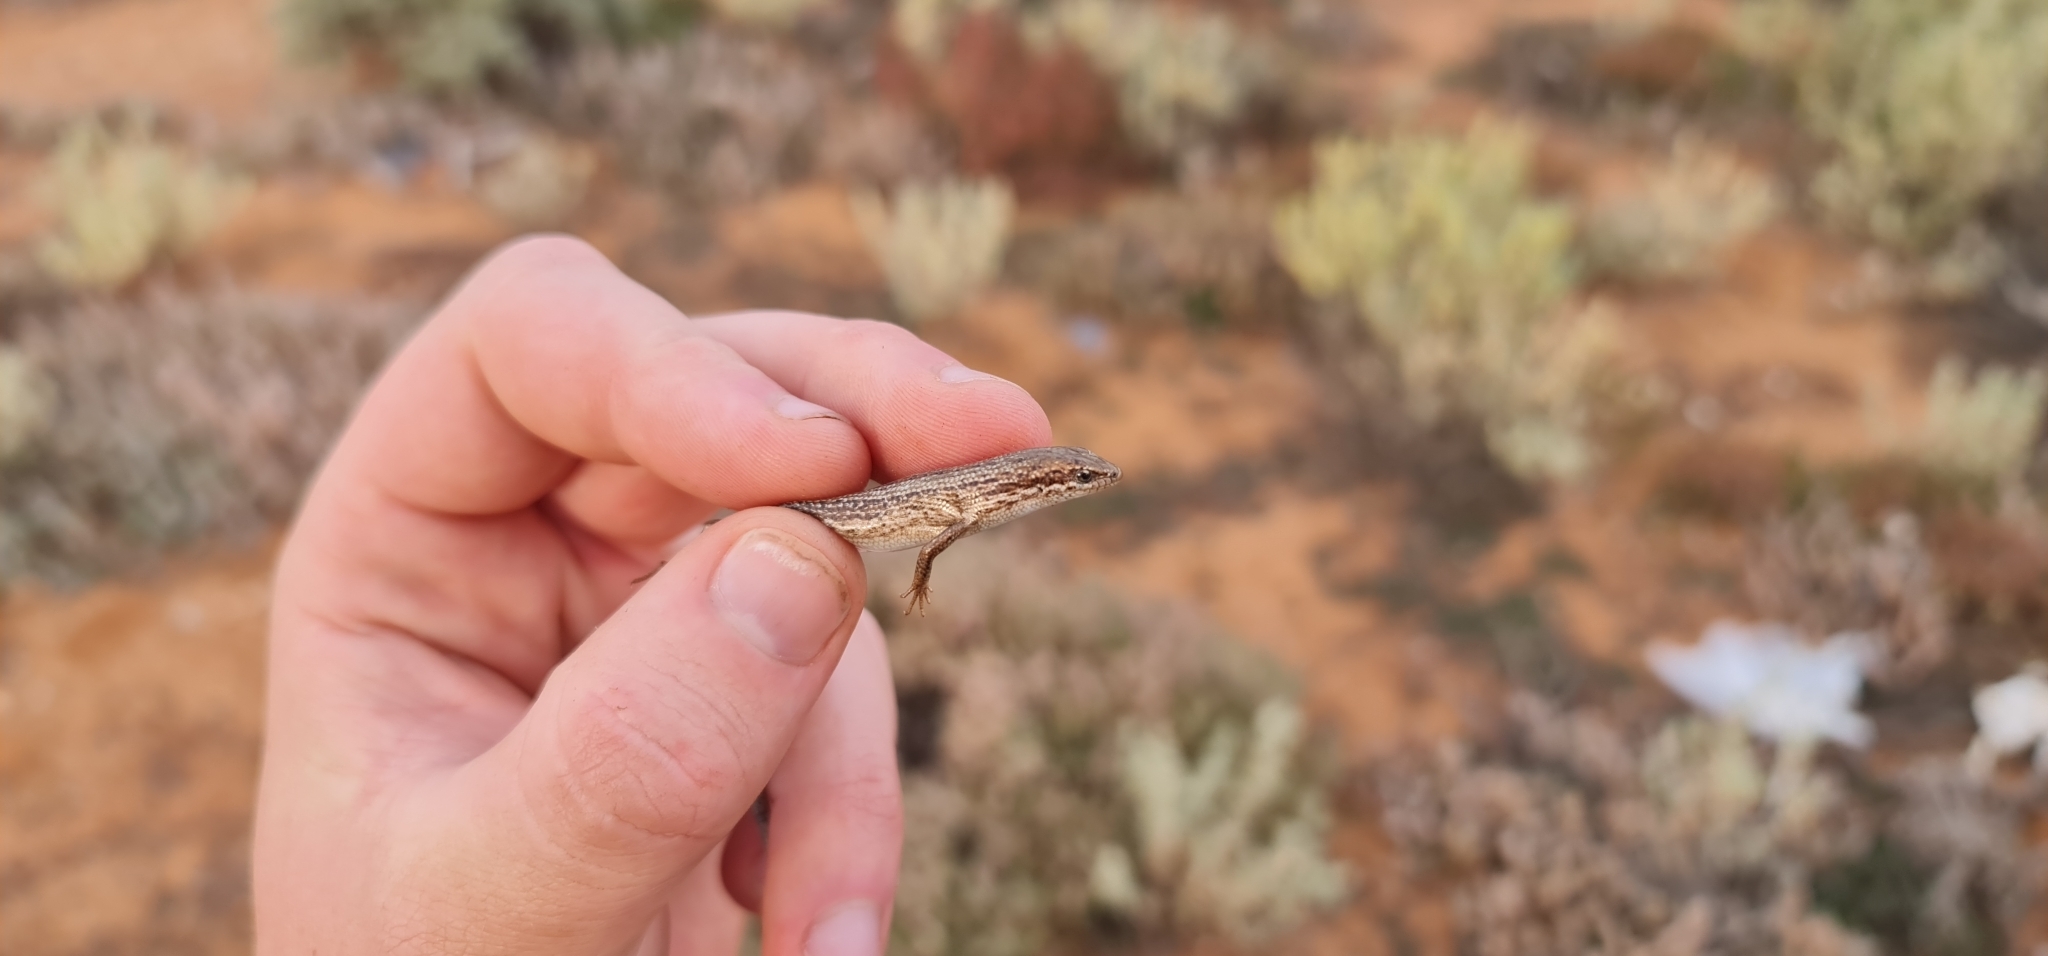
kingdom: Animalia
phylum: Chordata
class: Squamata
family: Scincidae
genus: Morethia
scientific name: Morethia adelaidensis
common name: Saltbush morethia skink
